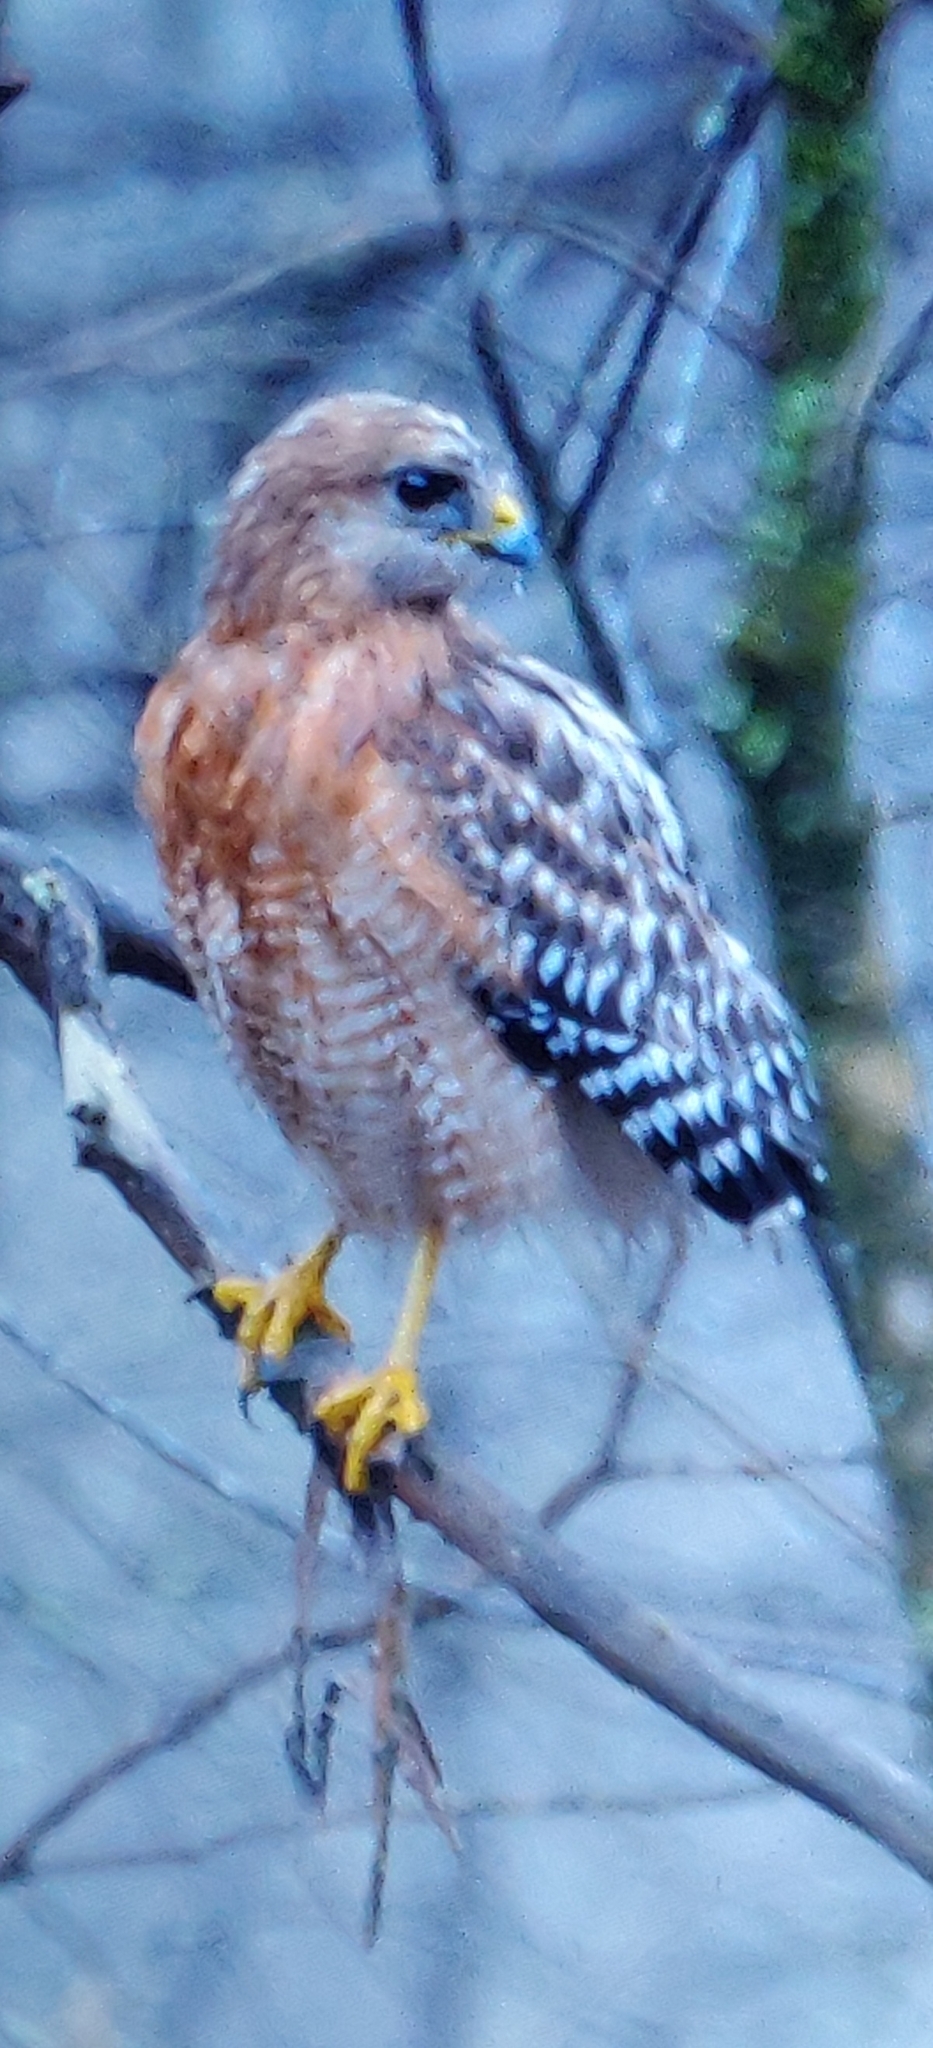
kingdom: Animalia
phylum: Chordata
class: Aves
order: Accipitriformes
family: Accipitridae
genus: Buteo
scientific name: Buteo lineatus
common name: Red-shouldered hawk
